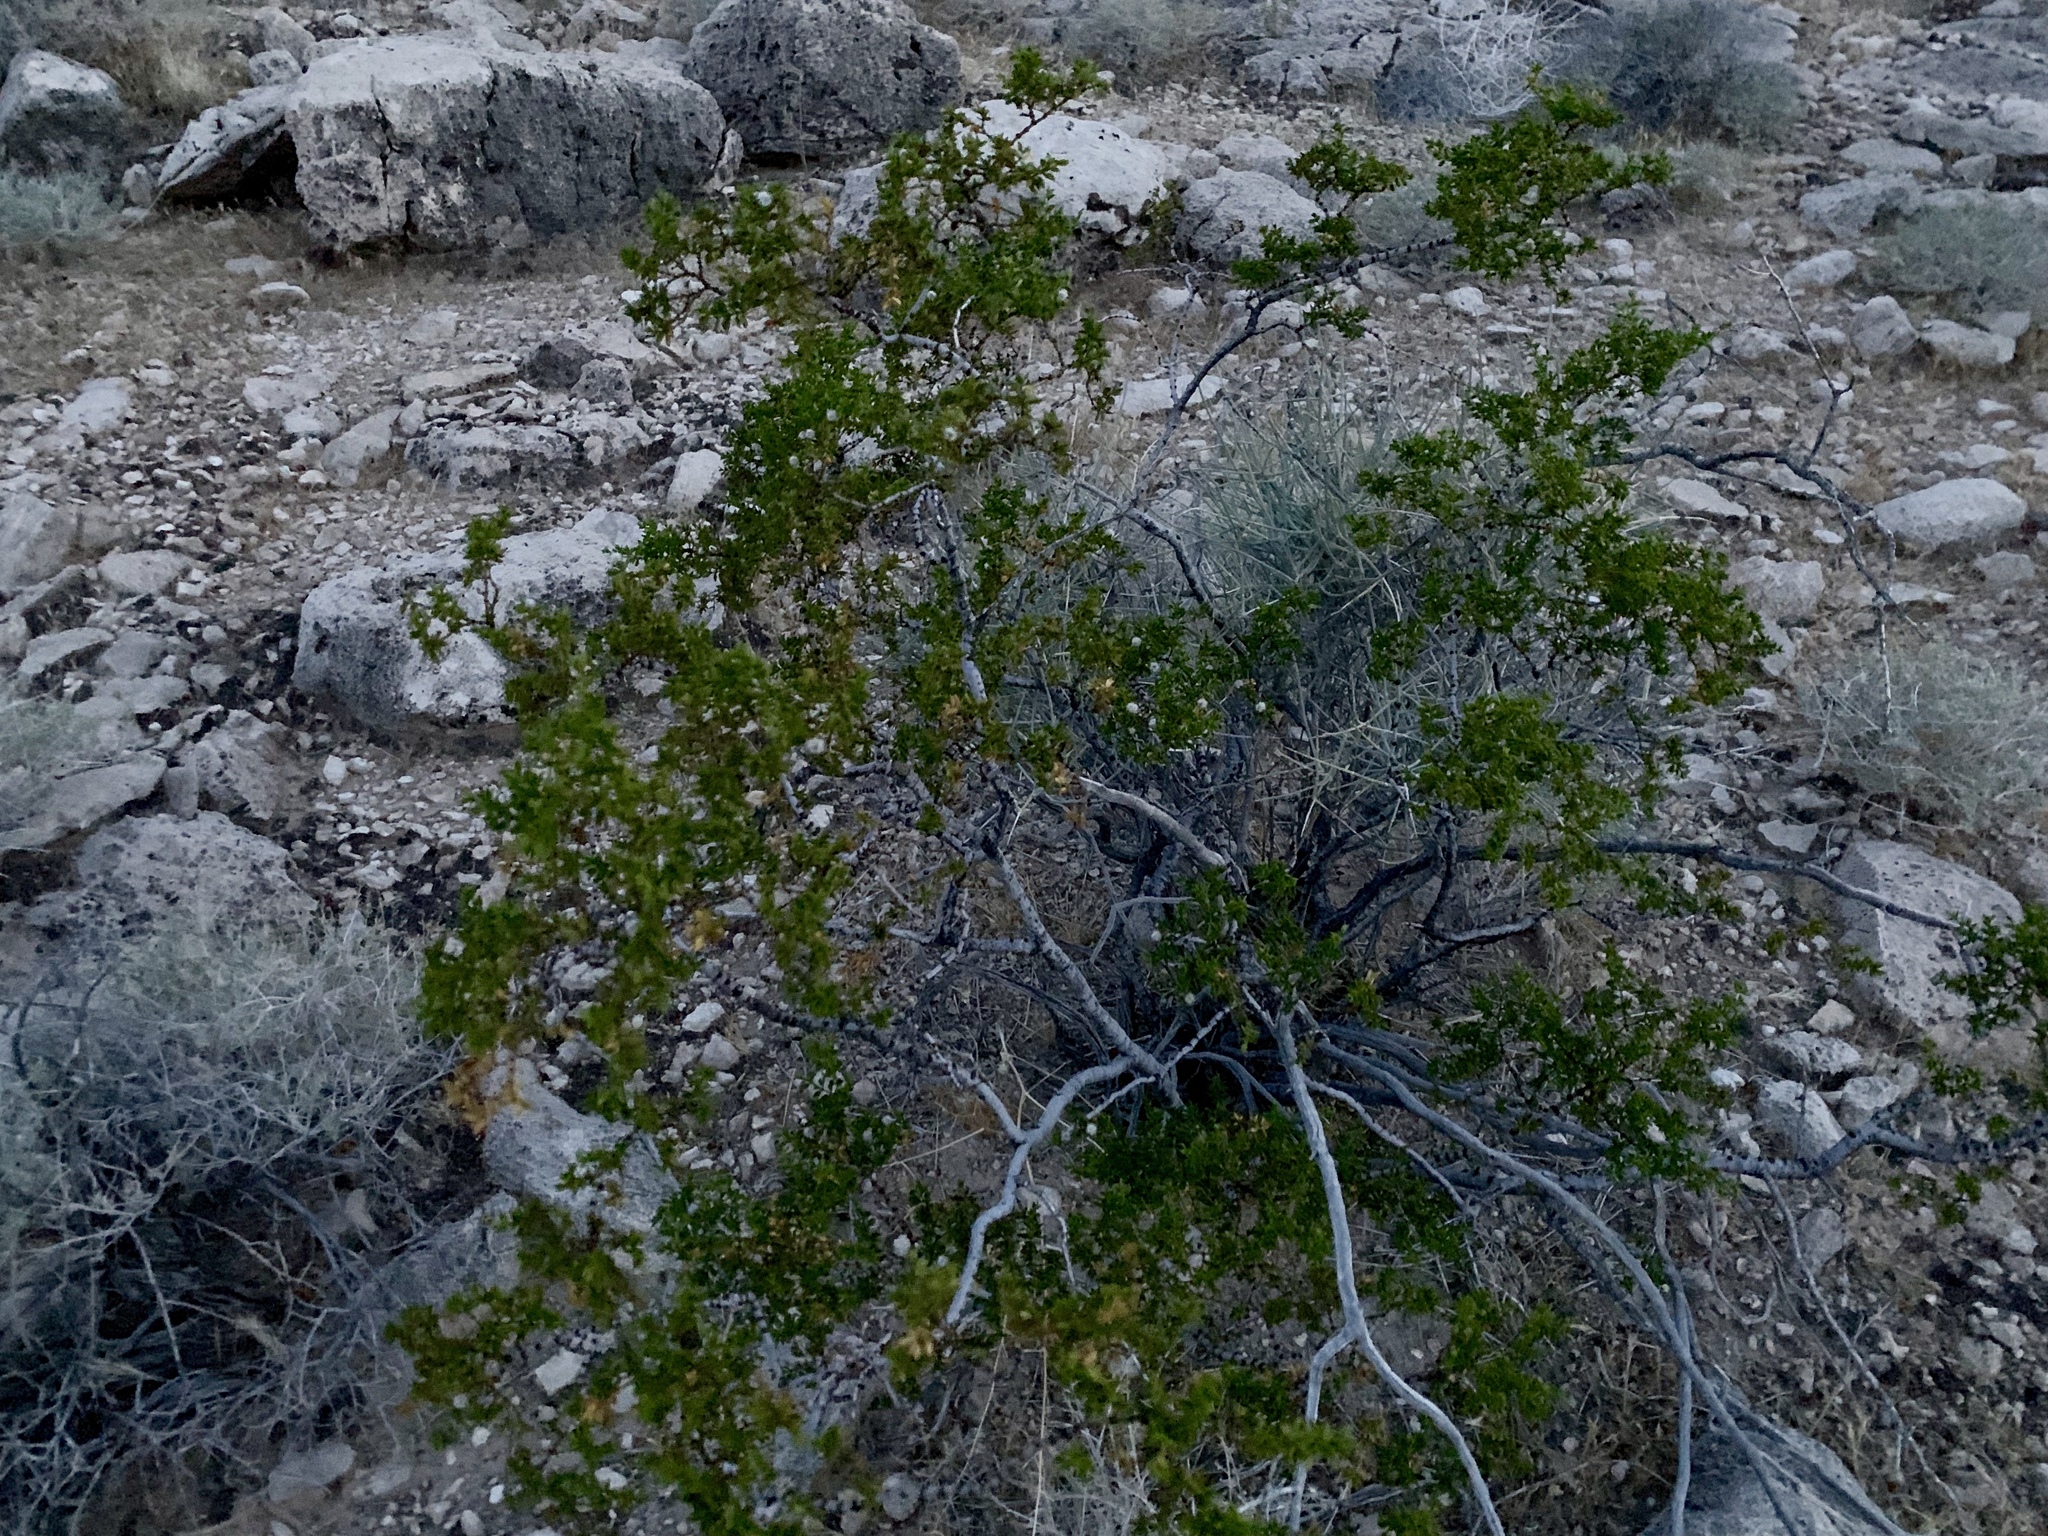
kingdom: Plantae
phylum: Tracheophyta
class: Magnoliopsida
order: Zygophyllales
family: Zygophyllaceae
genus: Larrea
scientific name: Larrea tridentata
